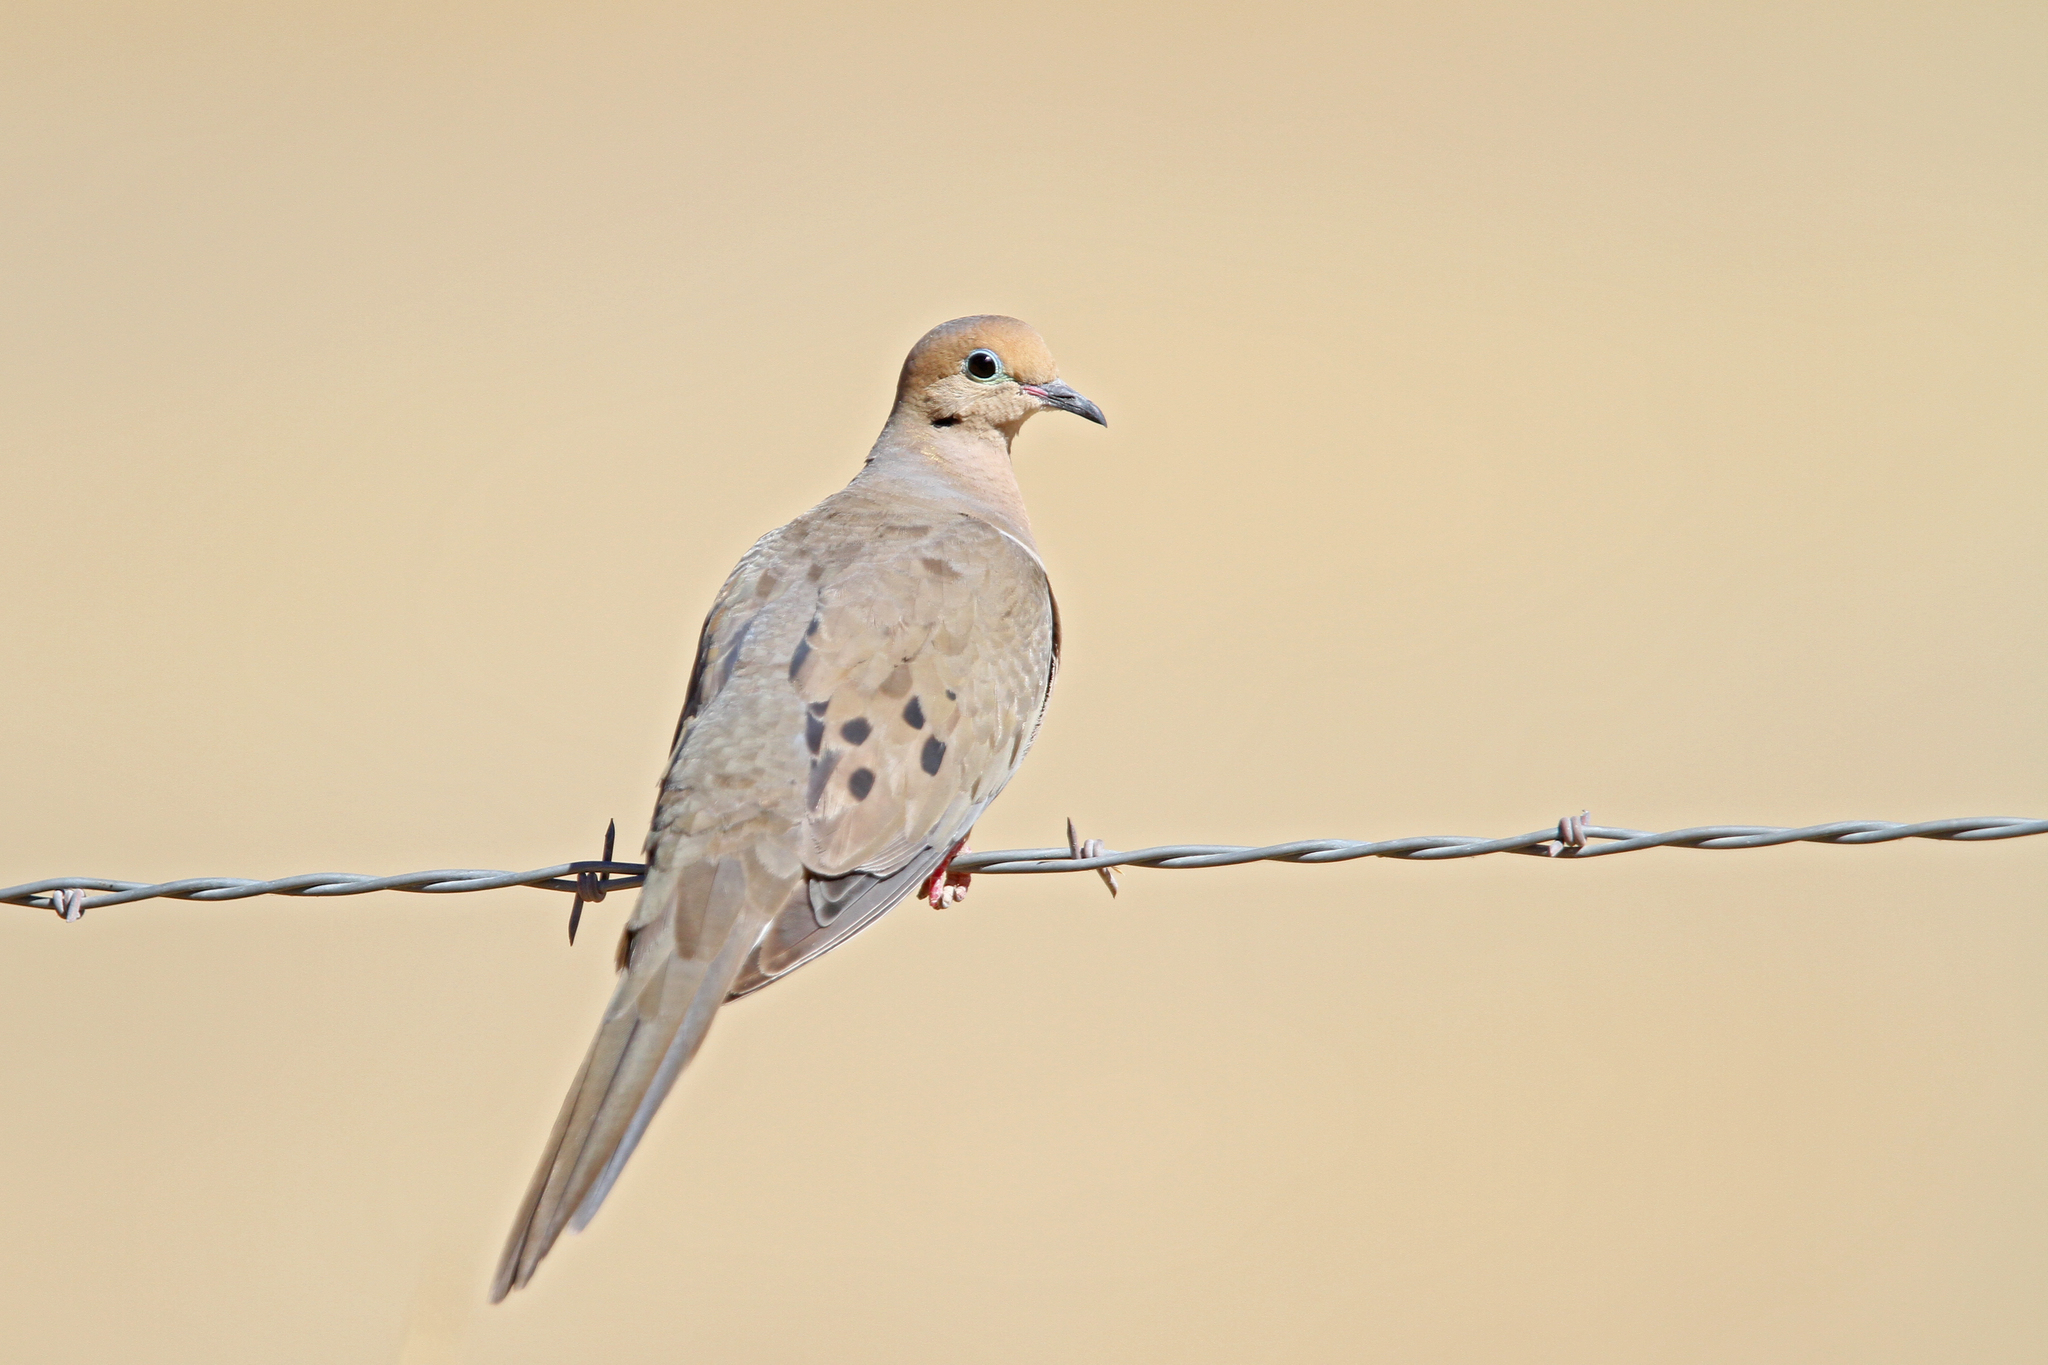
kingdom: Animalia
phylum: Chordata
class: Aves
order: Columbiformes
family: Columbidae
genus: Zenaida
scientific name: Zenaida macroura
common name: Mourning dove
